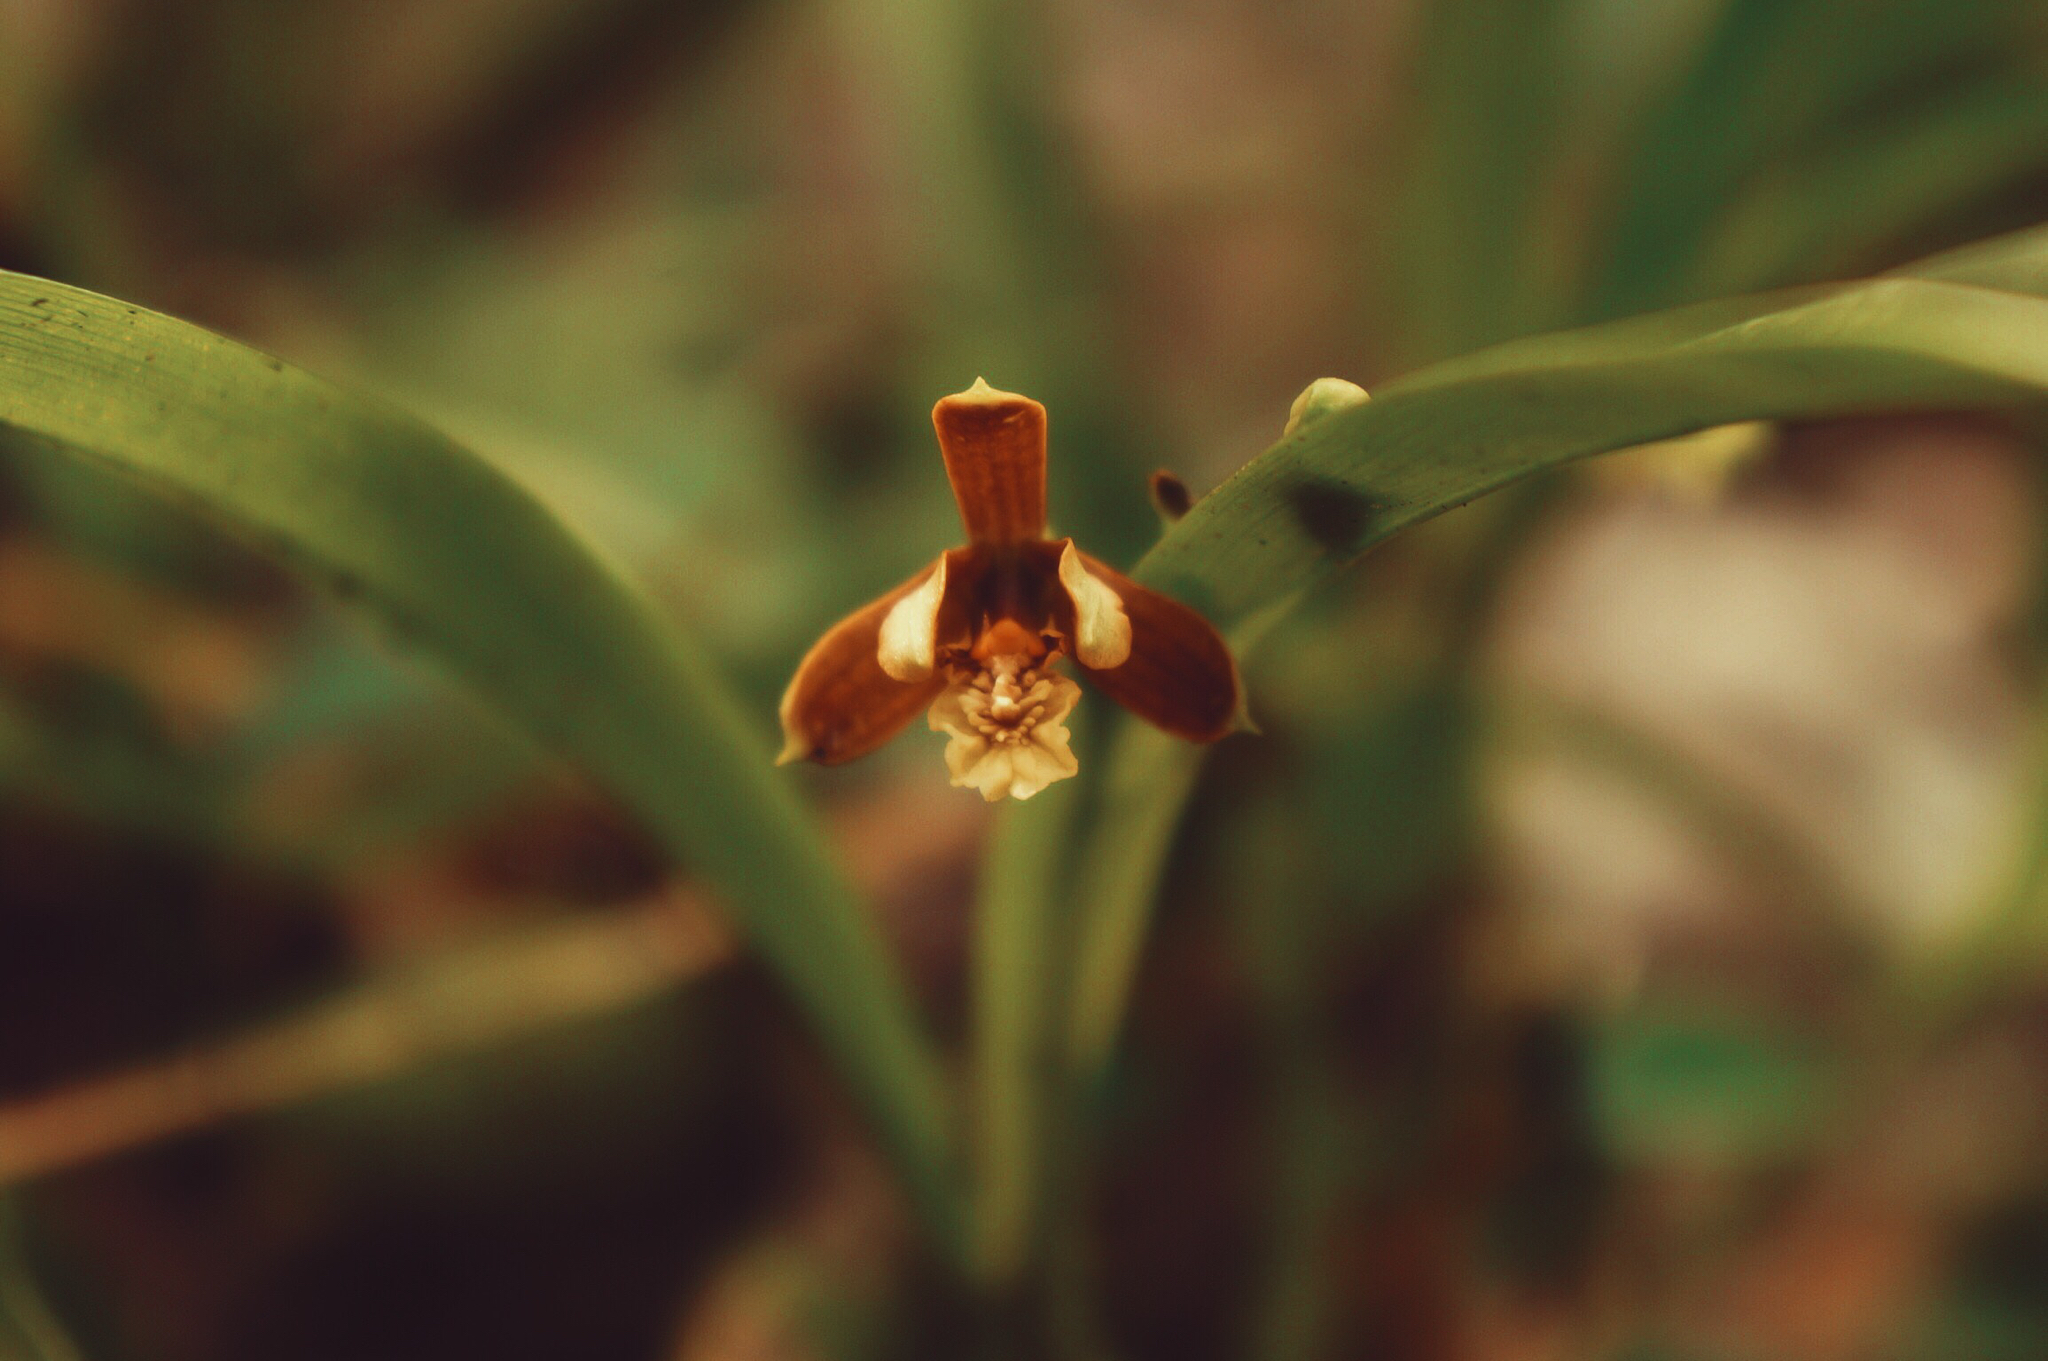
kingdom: Plantae
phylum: Tracheophyta
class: Liliopsida
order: Asparagales
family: Orchidaceae
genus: Prosthechea
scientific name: Prosthechea livida
